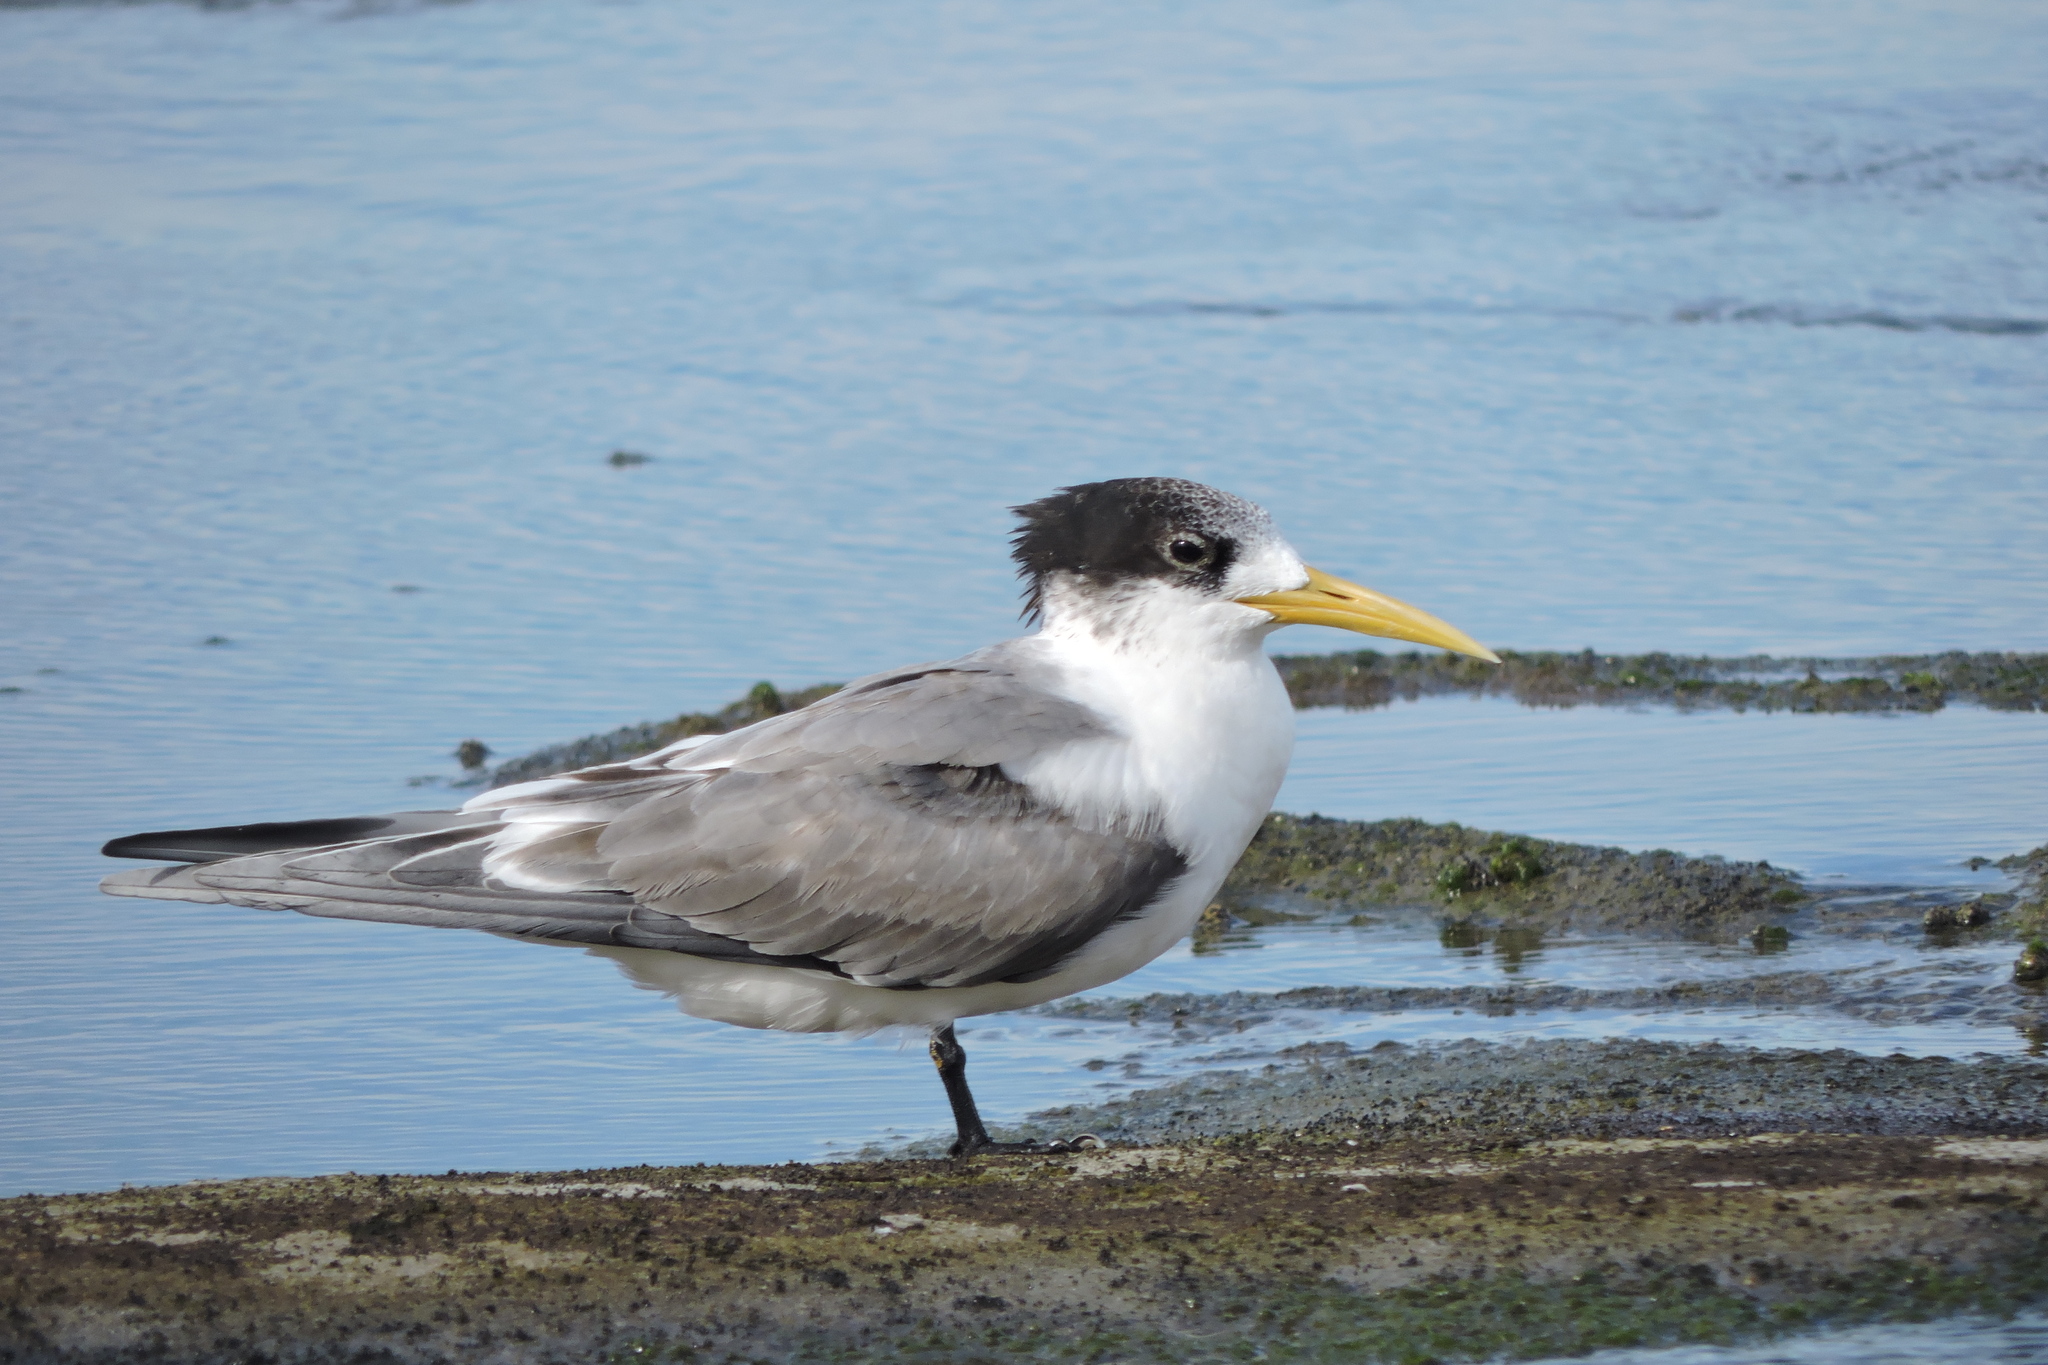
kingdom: Animalia
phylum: Chordata
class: Aves
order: Charadriiformes
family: Laridae
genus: Thalasseus
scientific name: Thalasseus bergii
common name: Greater crested tern
